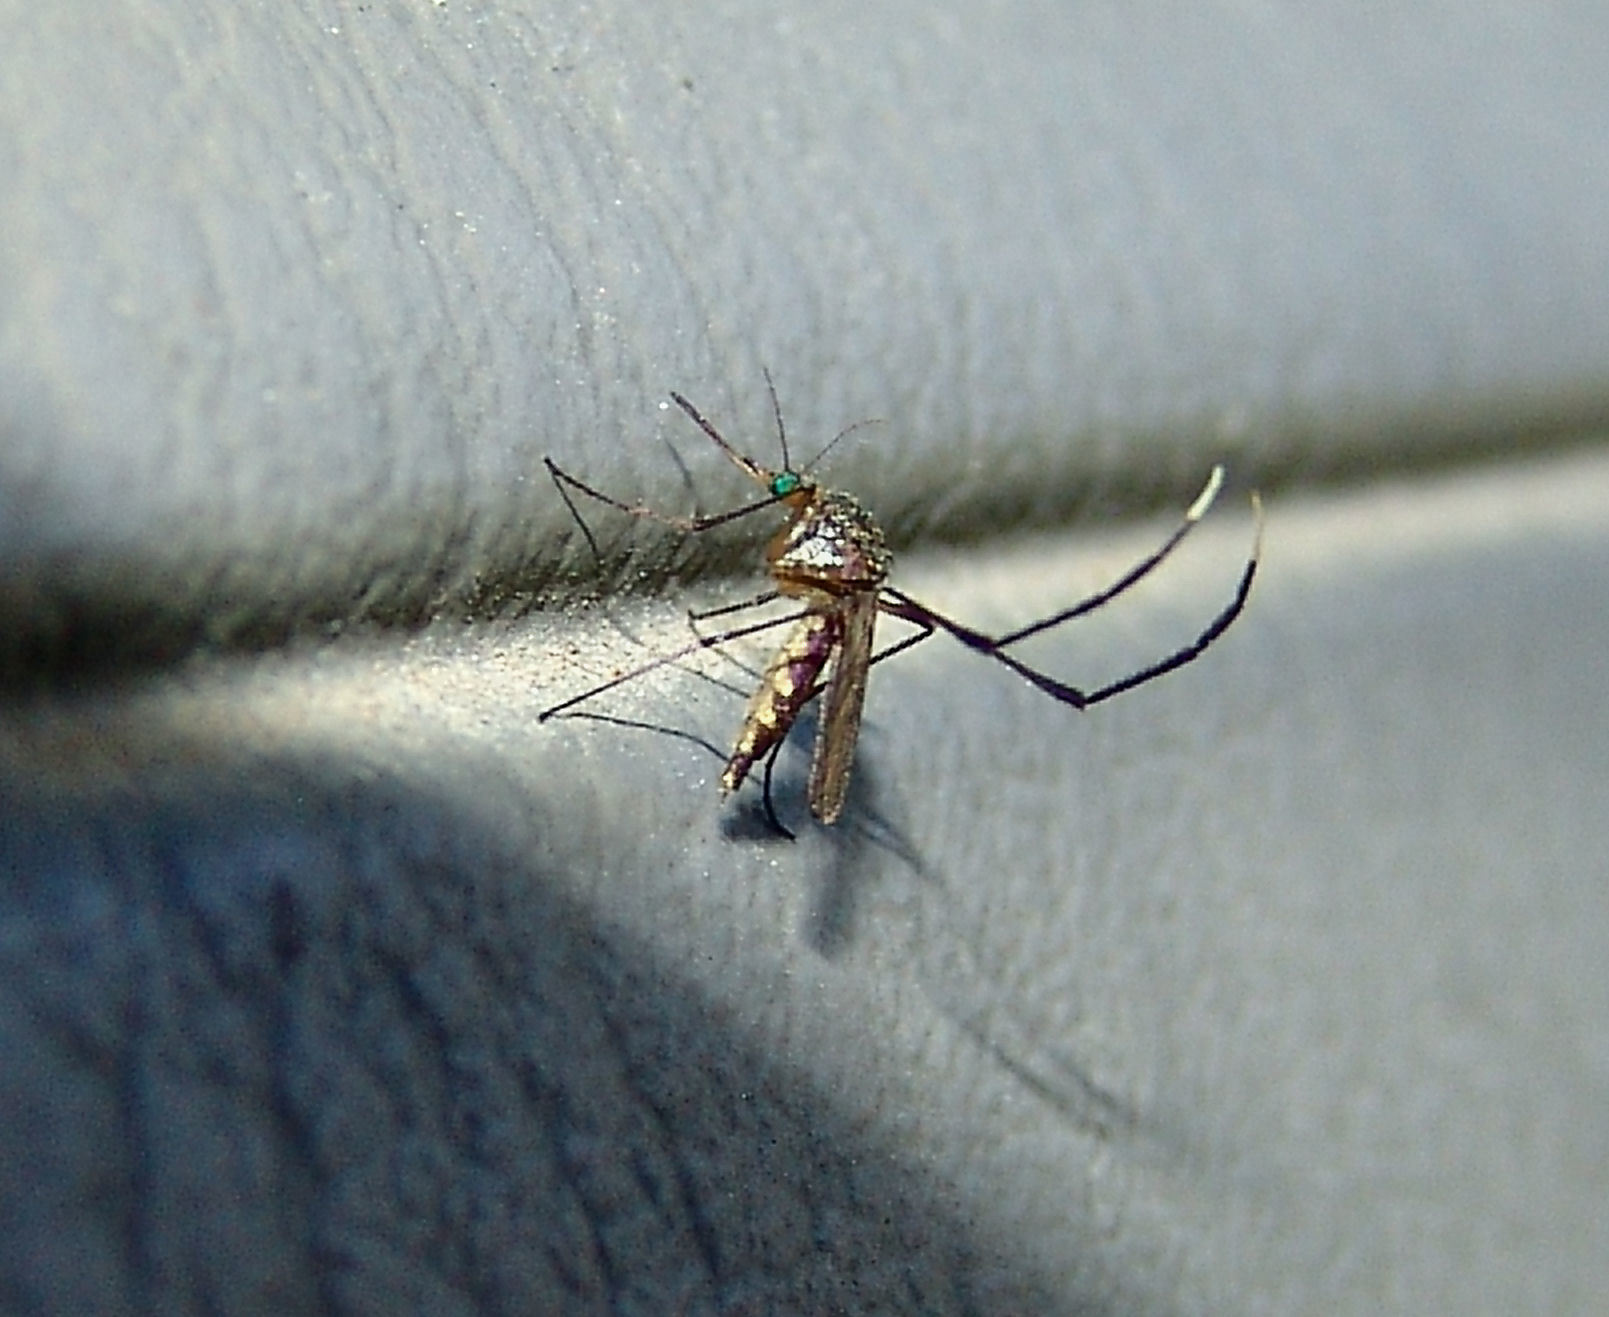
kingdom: Animalia
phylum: Arthropoda
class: Insecta
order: Diptera
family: Culicidae
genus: Psorophora
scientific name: Psorophora ferox
